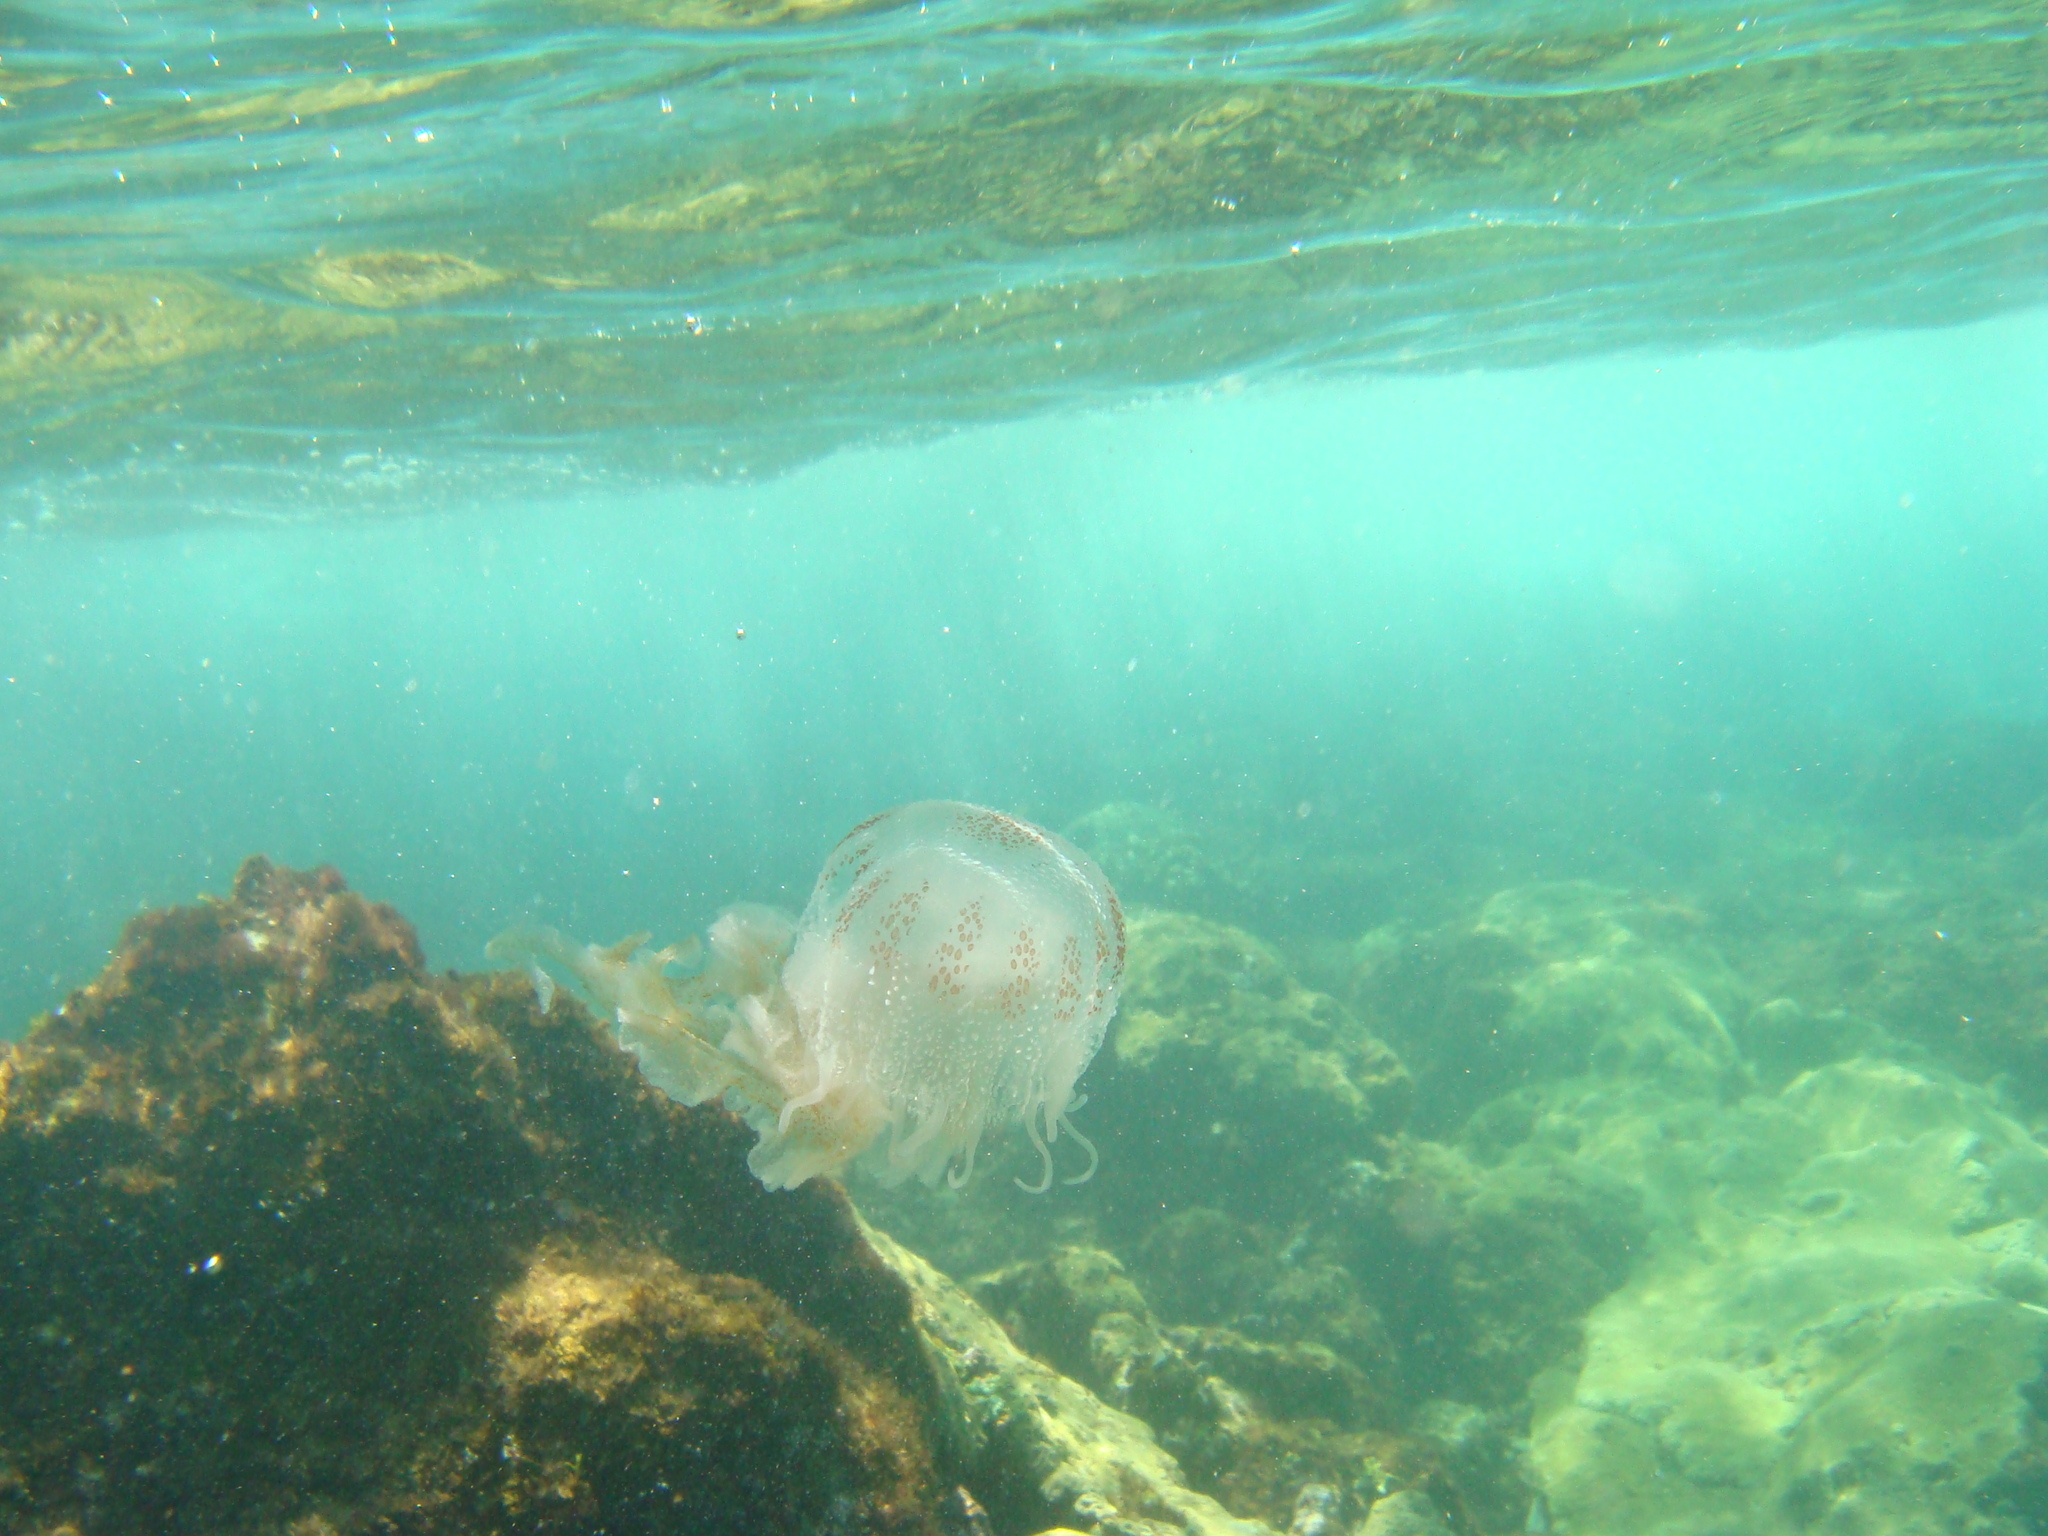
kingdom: Animalia
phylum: Cnidaria
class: Scyphozoa
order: Semaeostomeae
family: Pelagiidae
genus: Chrysaora
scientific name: Chrysaora lactea
